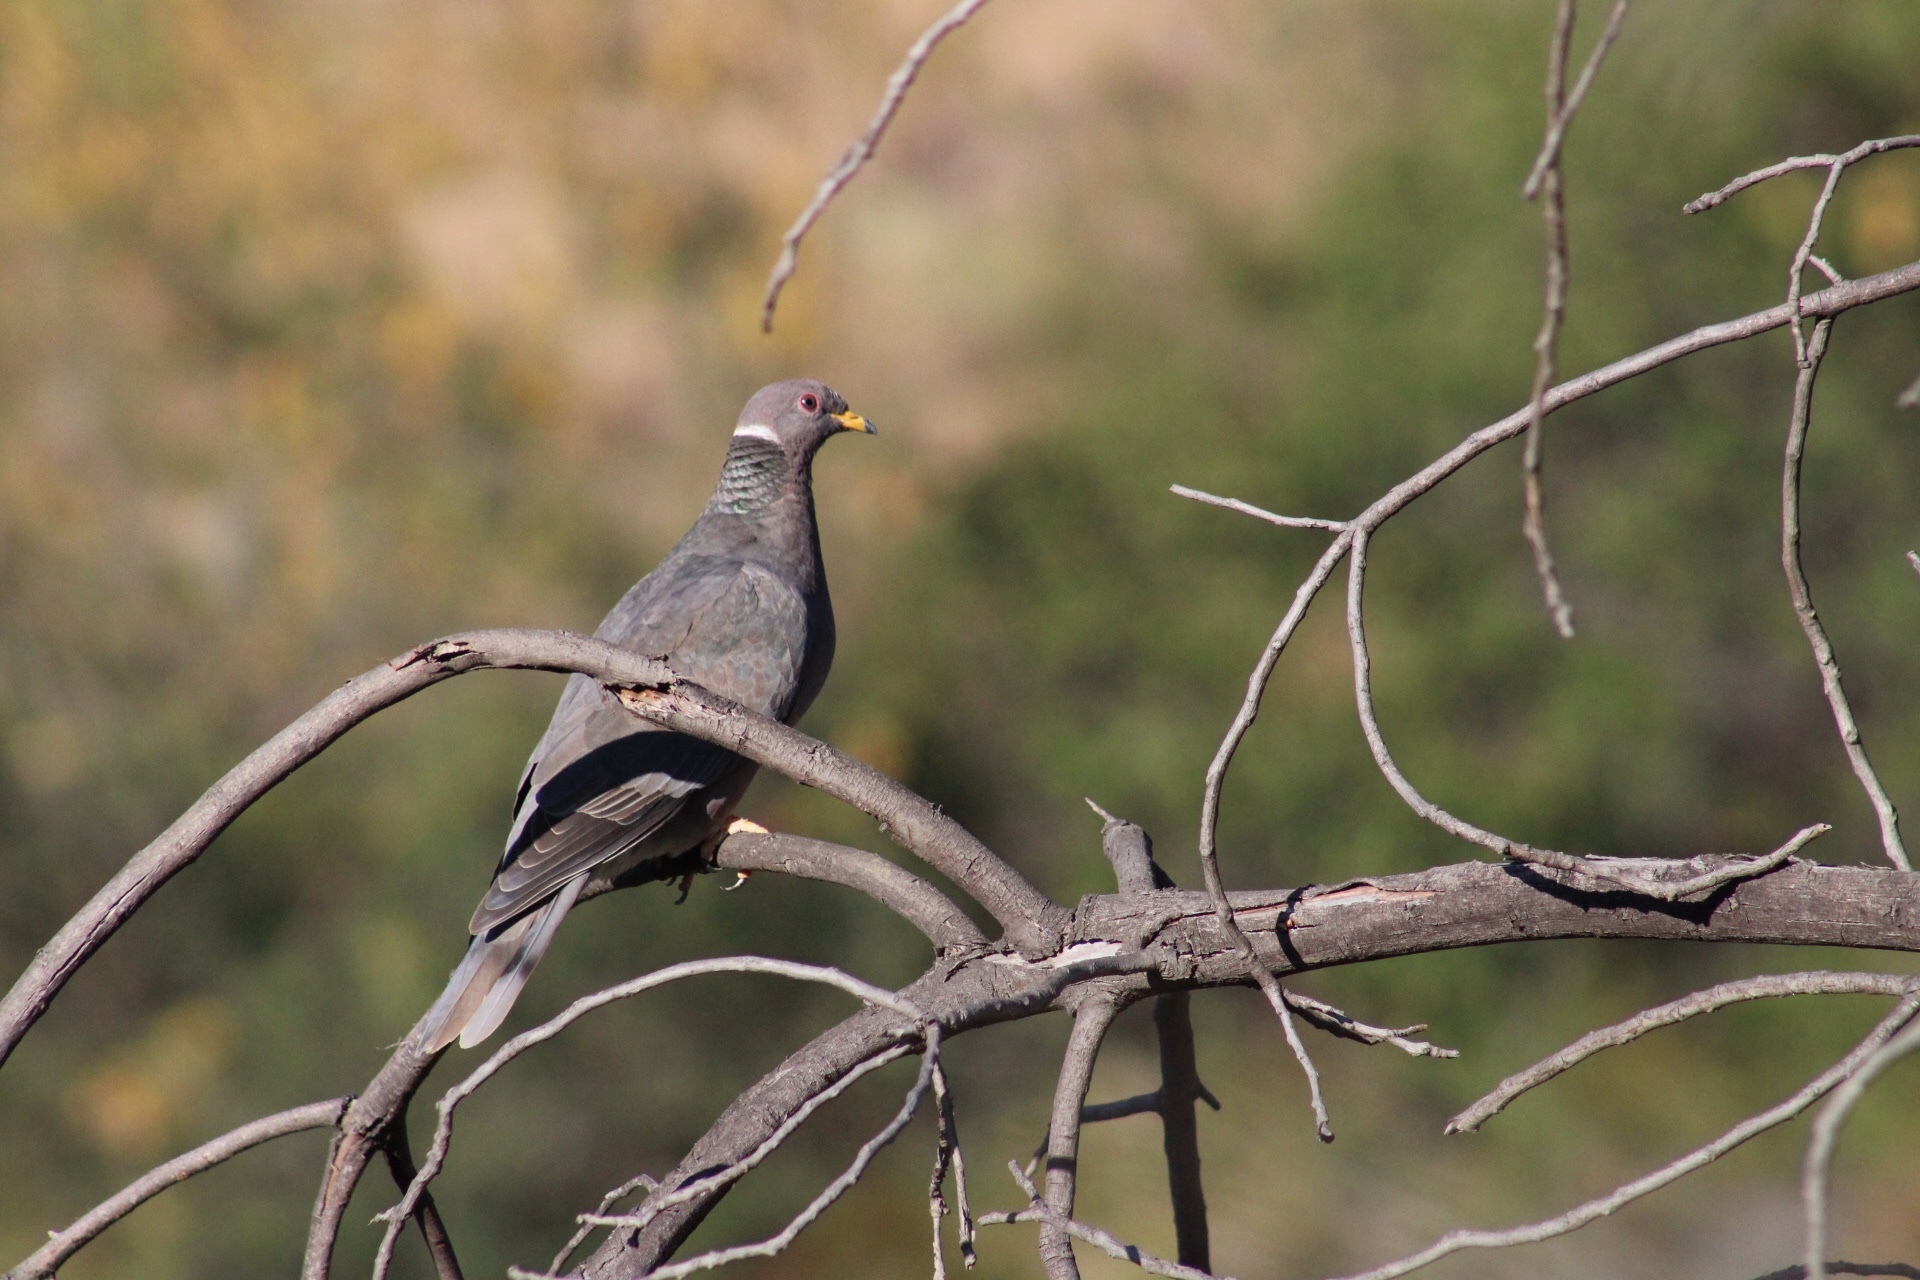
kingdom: Animalia
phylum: Chordata
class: Aves
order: Columbiformes
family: Columbidae
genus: Patagioenas
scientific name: Patagioenas fasciata
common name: Band-tailed pigeon
